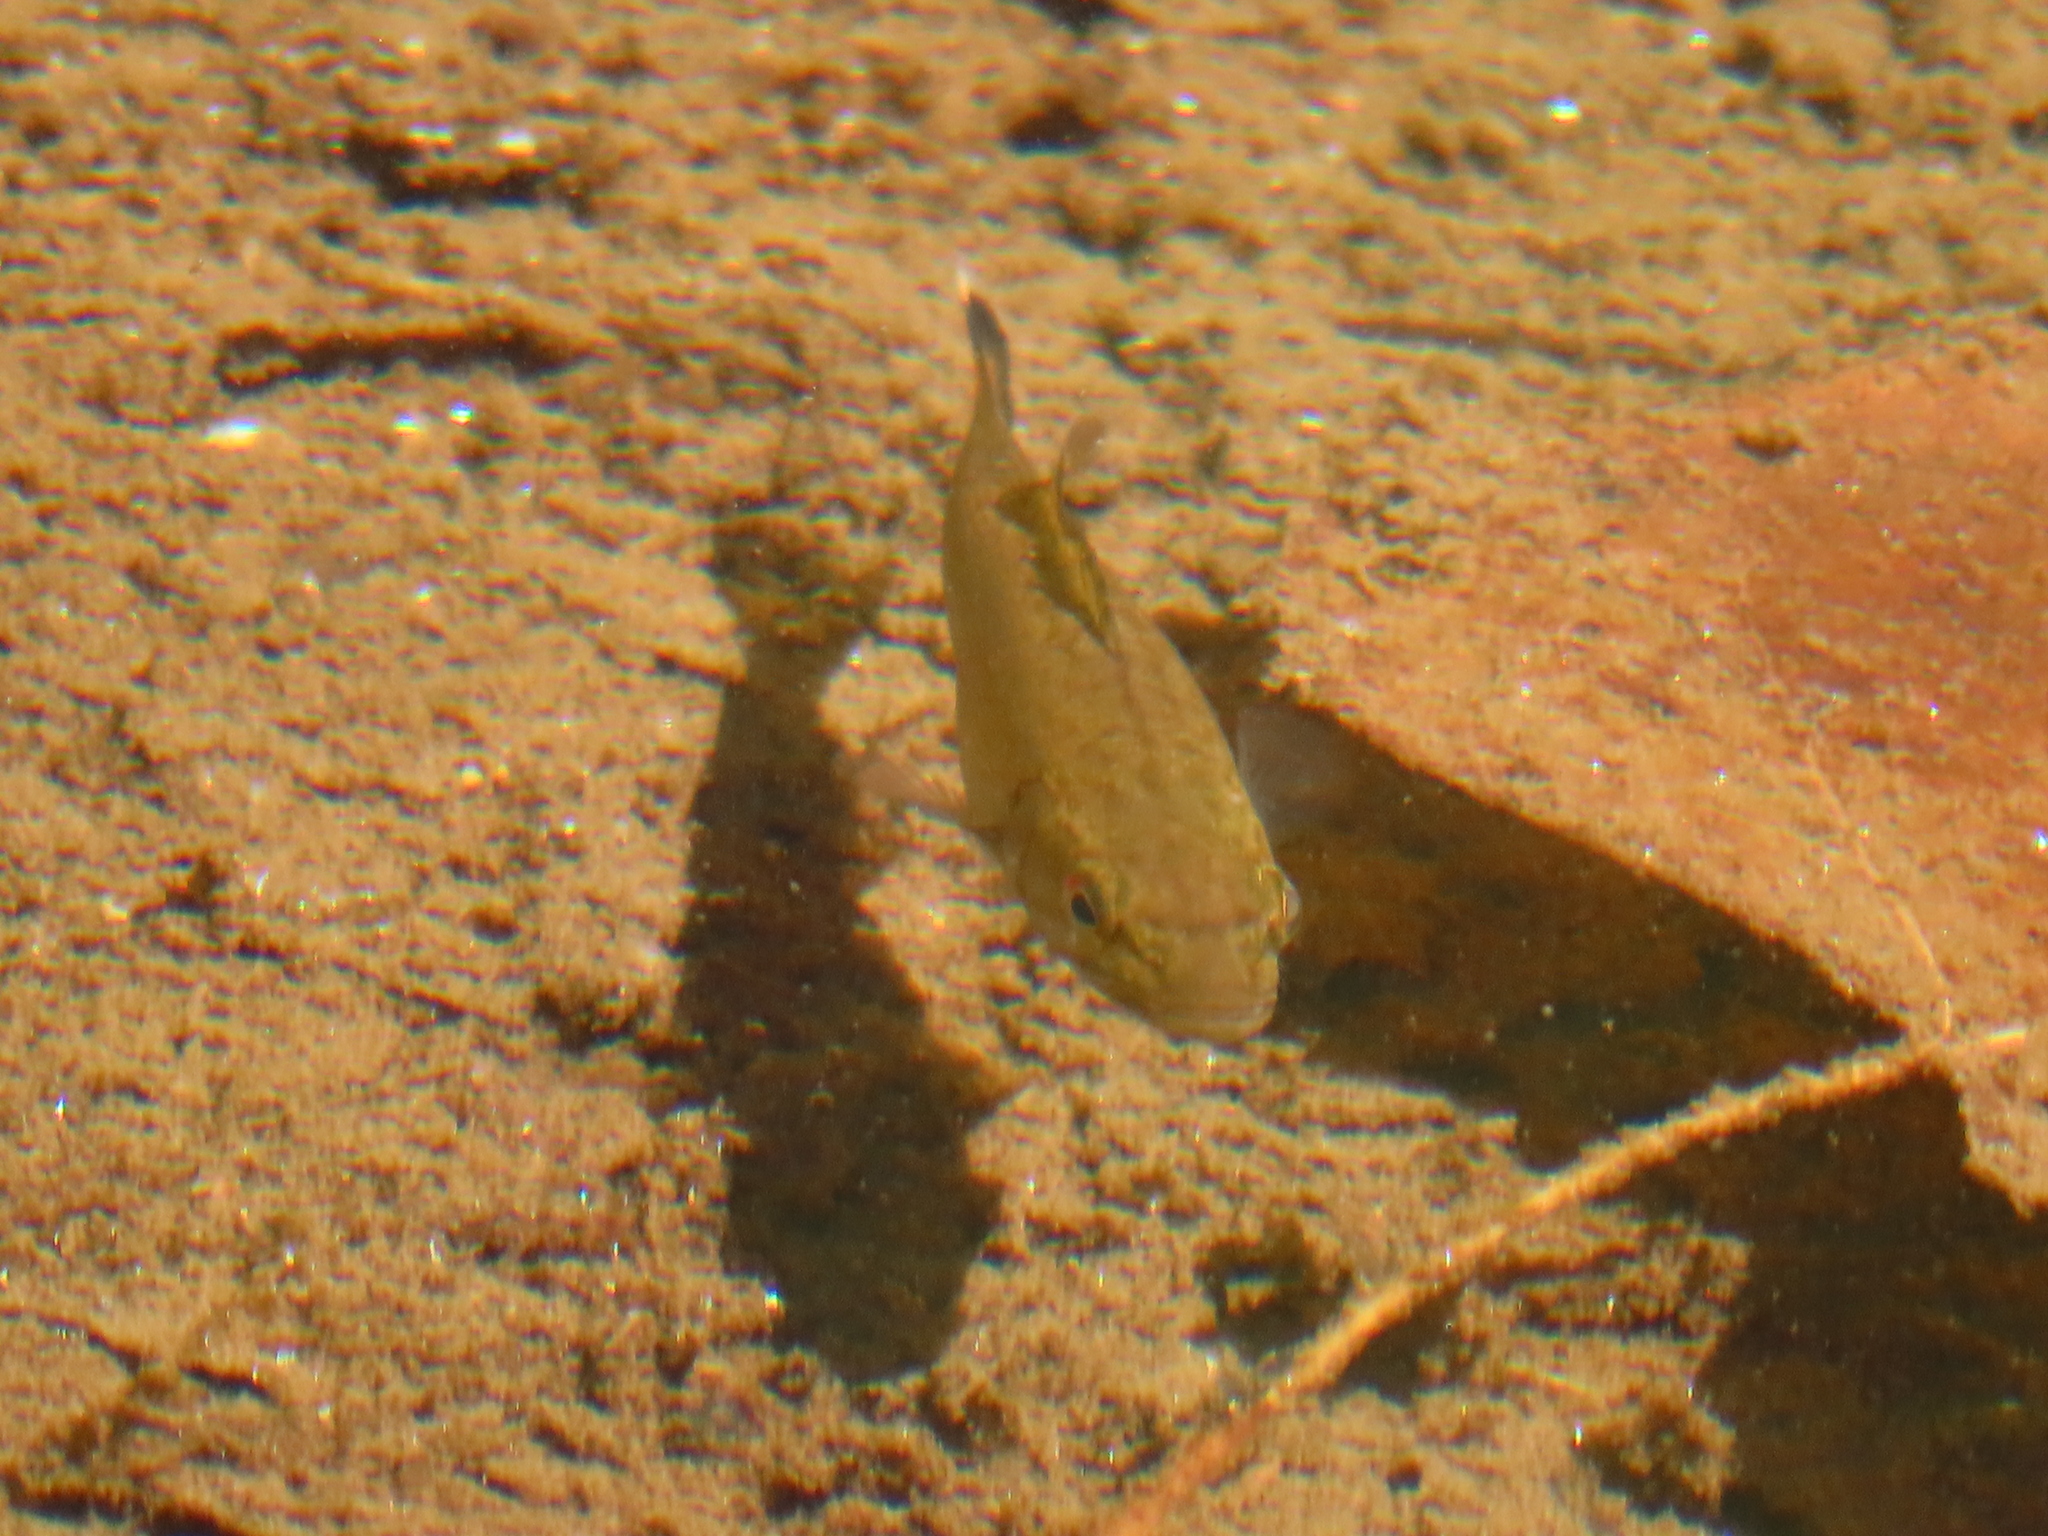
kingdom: Animalia
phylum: Chordata
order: Perciformes
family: Centrarchidae
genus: Micropterus
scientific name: Micropterus dolomieu
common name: Smallmouth bass
